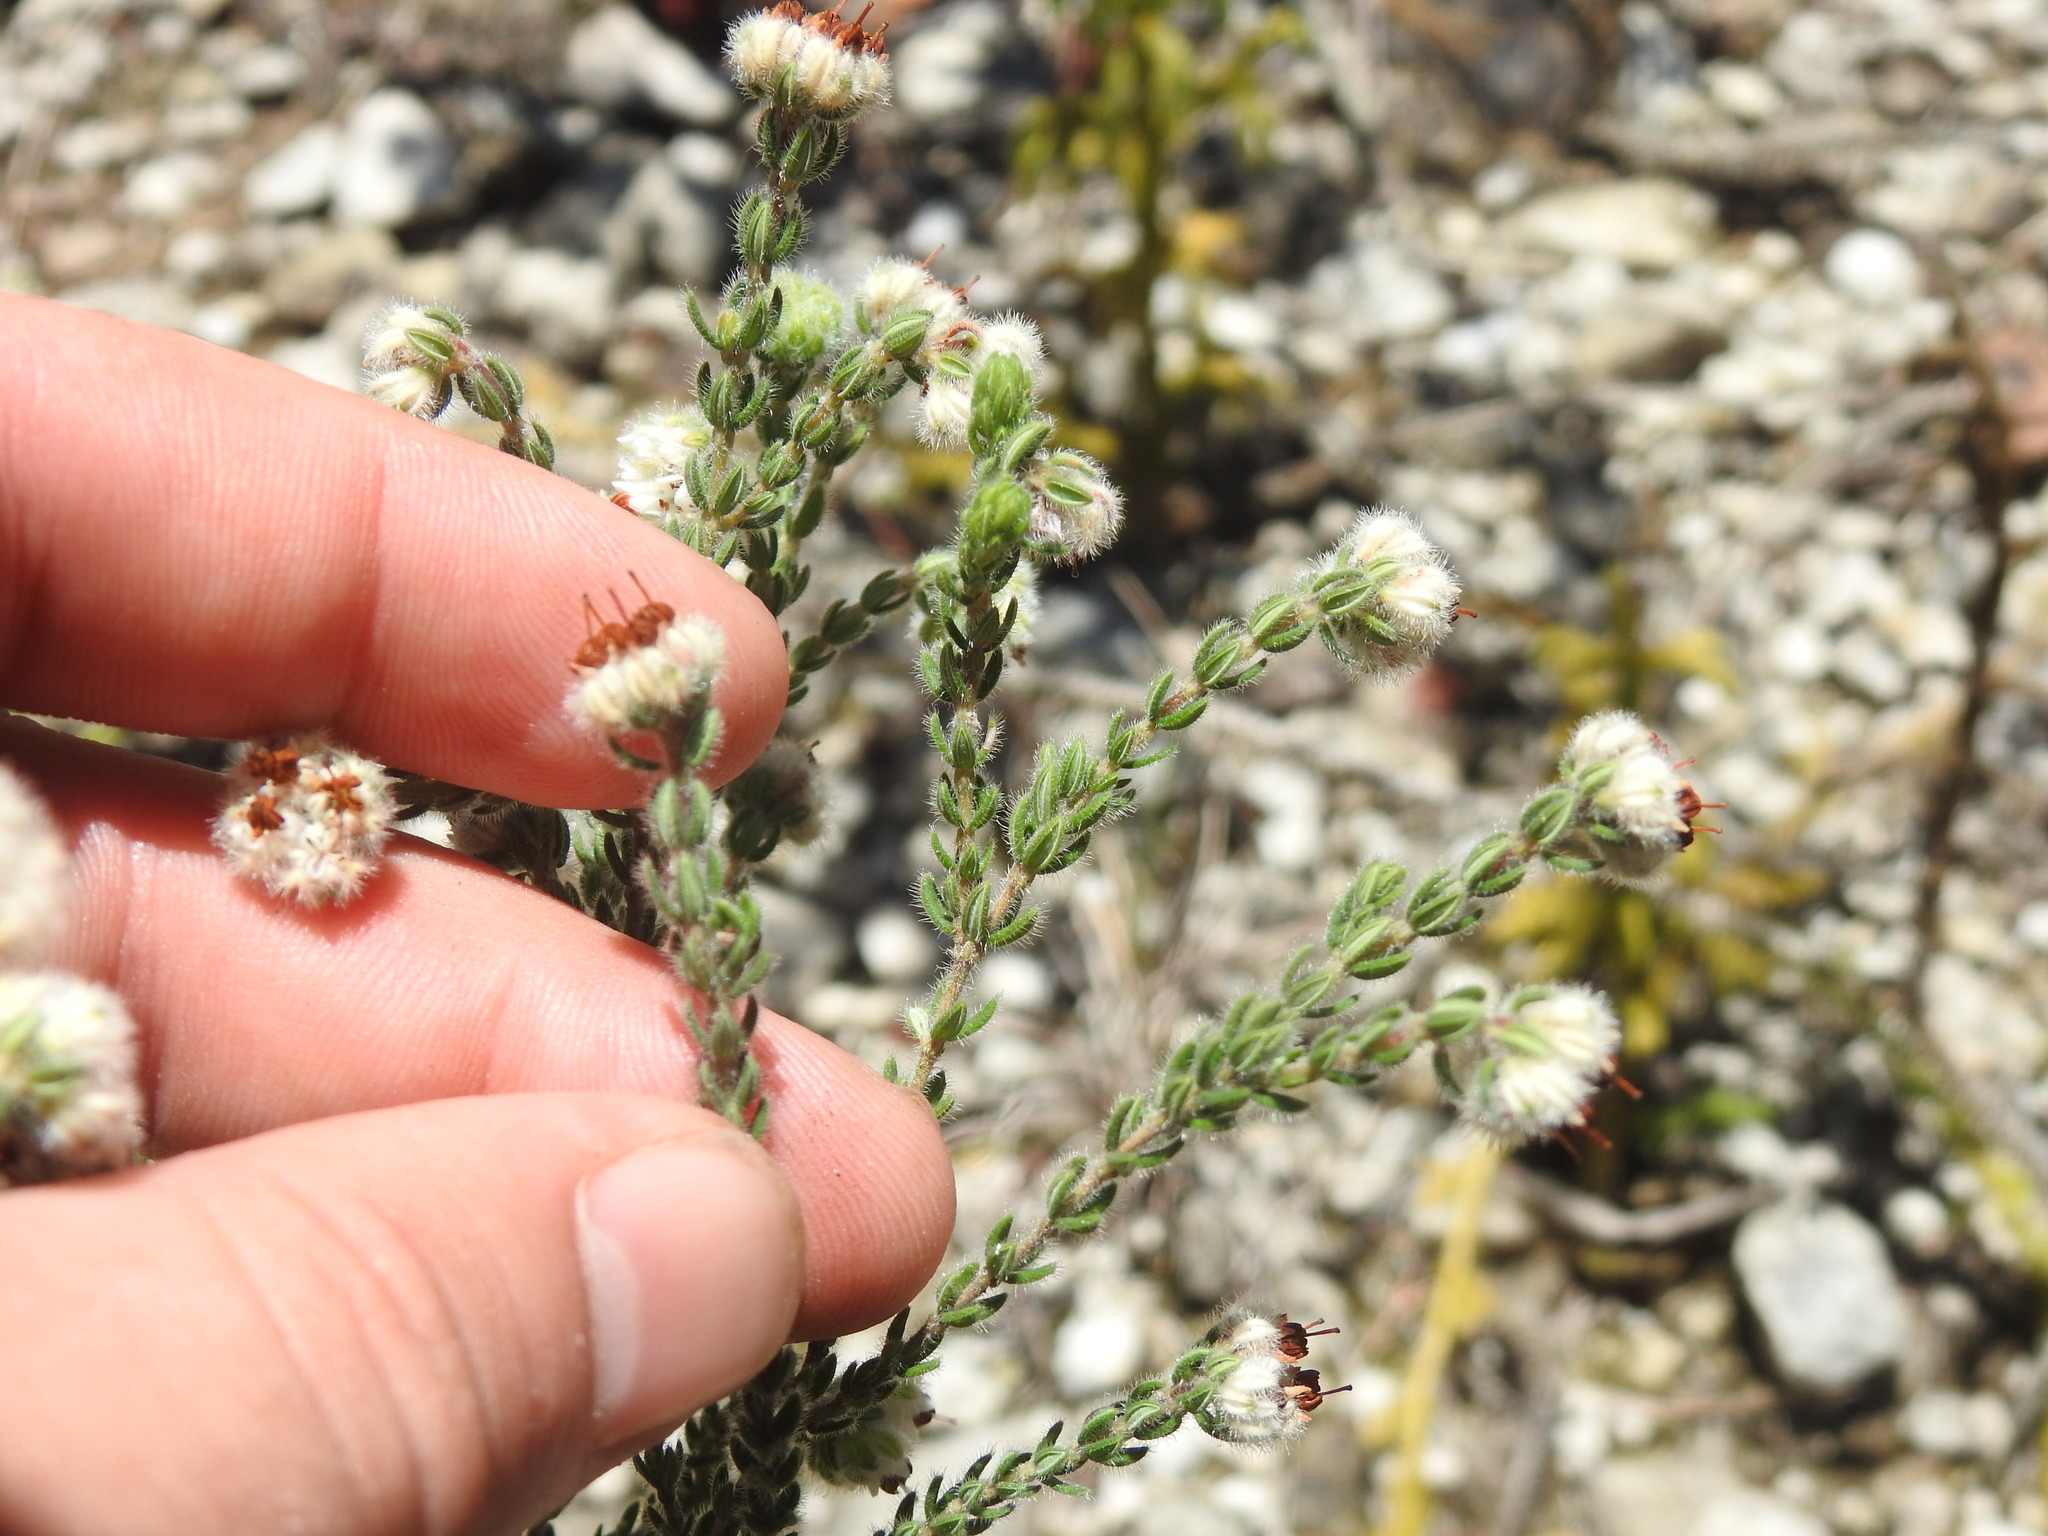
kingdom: Plantae
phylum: Tracheophyta
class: Magnoliopsida
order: Ericales
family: Ericaceae
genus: Erica
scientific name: Erica flaccida
